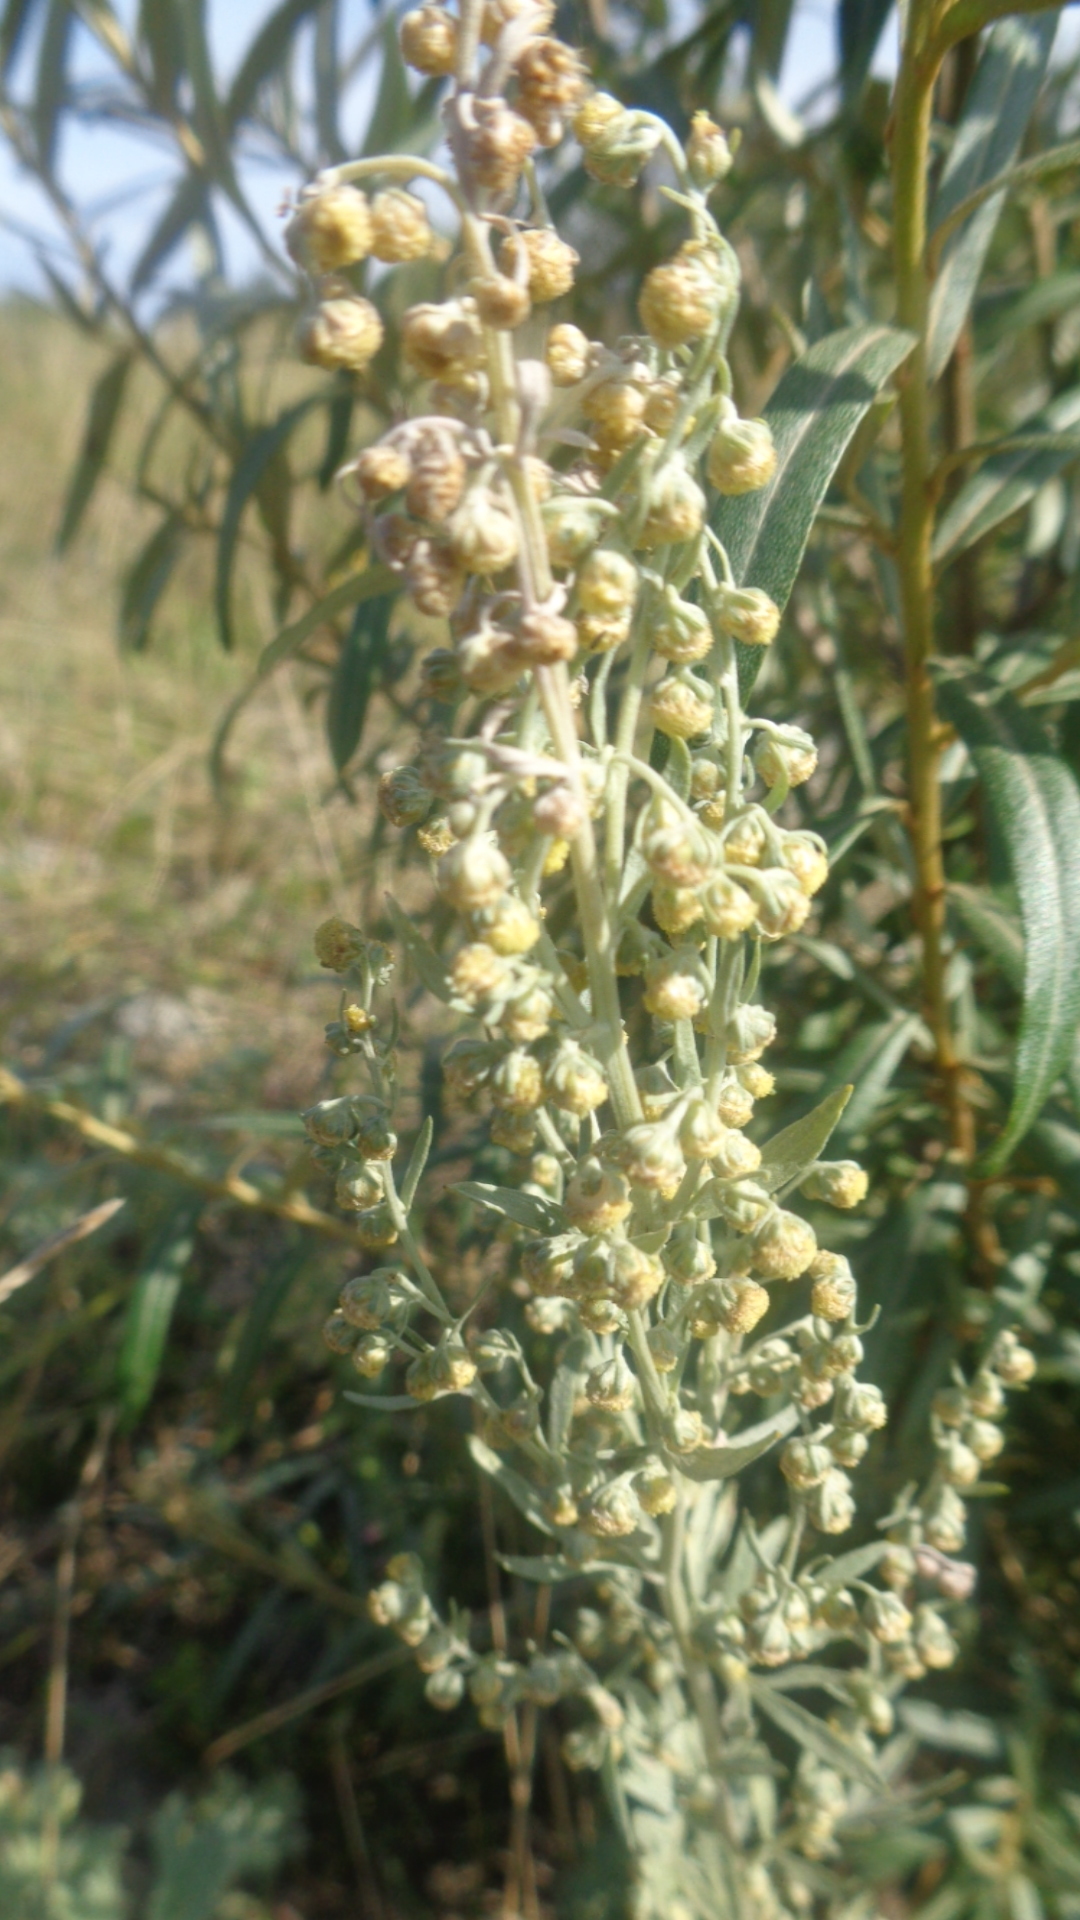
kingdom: Plantae
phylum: Tracheophyta
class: Magnoliopsida
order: Asterales
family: Asteraceae
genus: Artemisia
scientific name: Artemisia absinthium
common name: Wormwood
